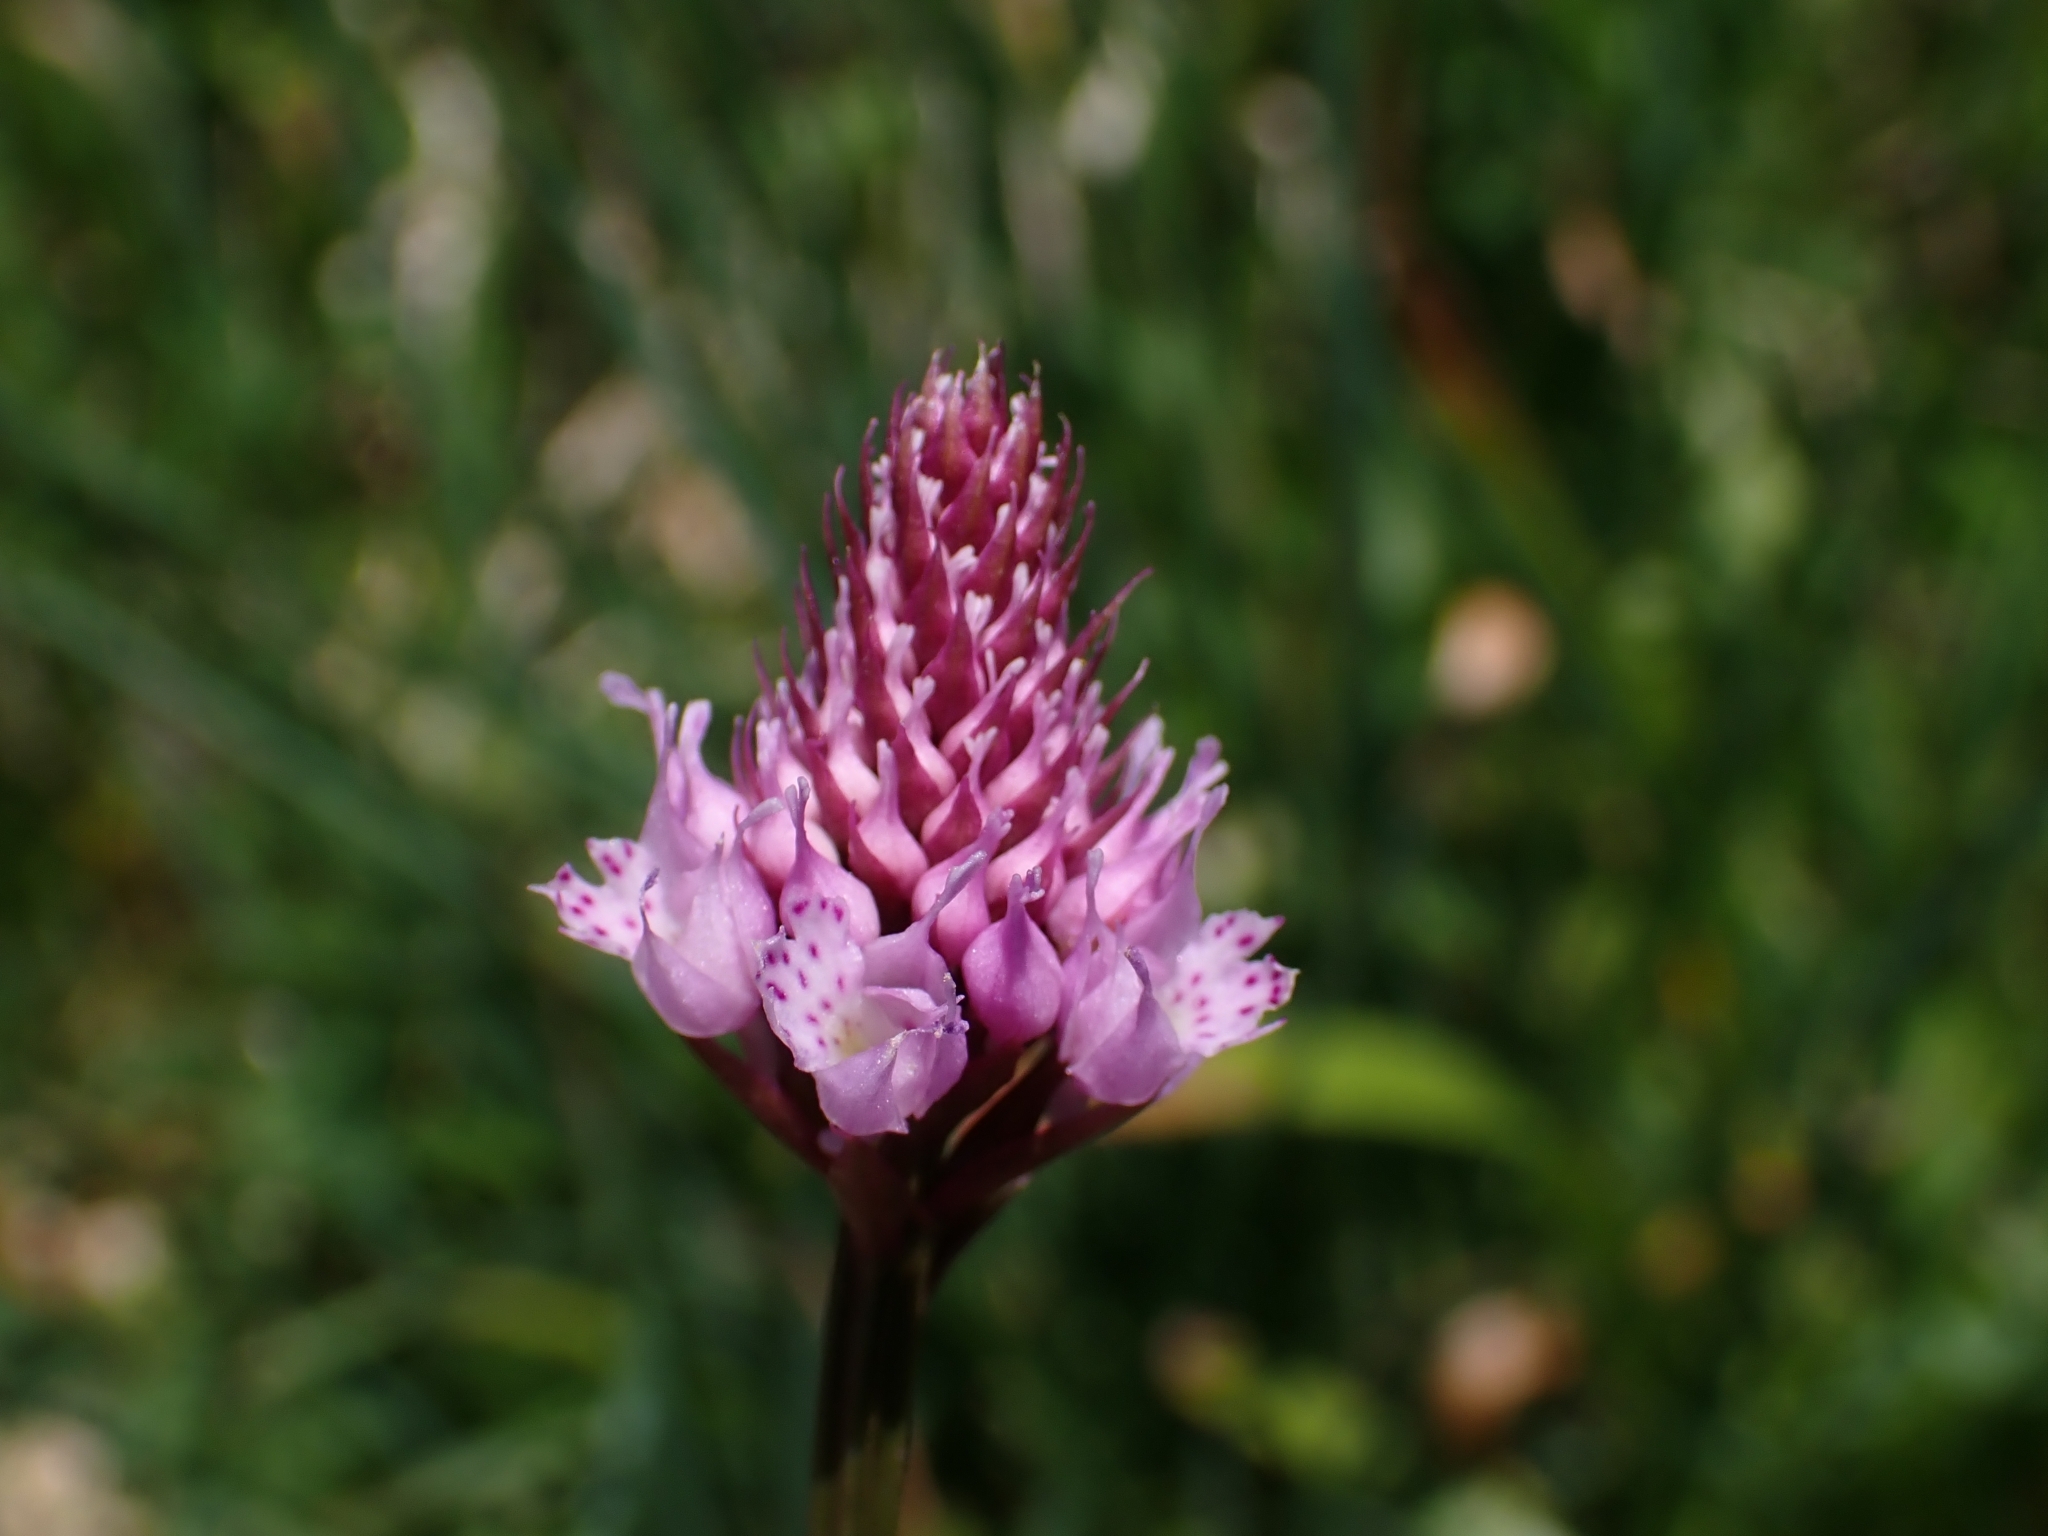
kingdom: Plantae
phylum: Tracheophyta
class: Liliopsida
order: Asparagales
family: Orchidaceae
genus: Traunsteinera
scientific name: Traunsteinera globosa
